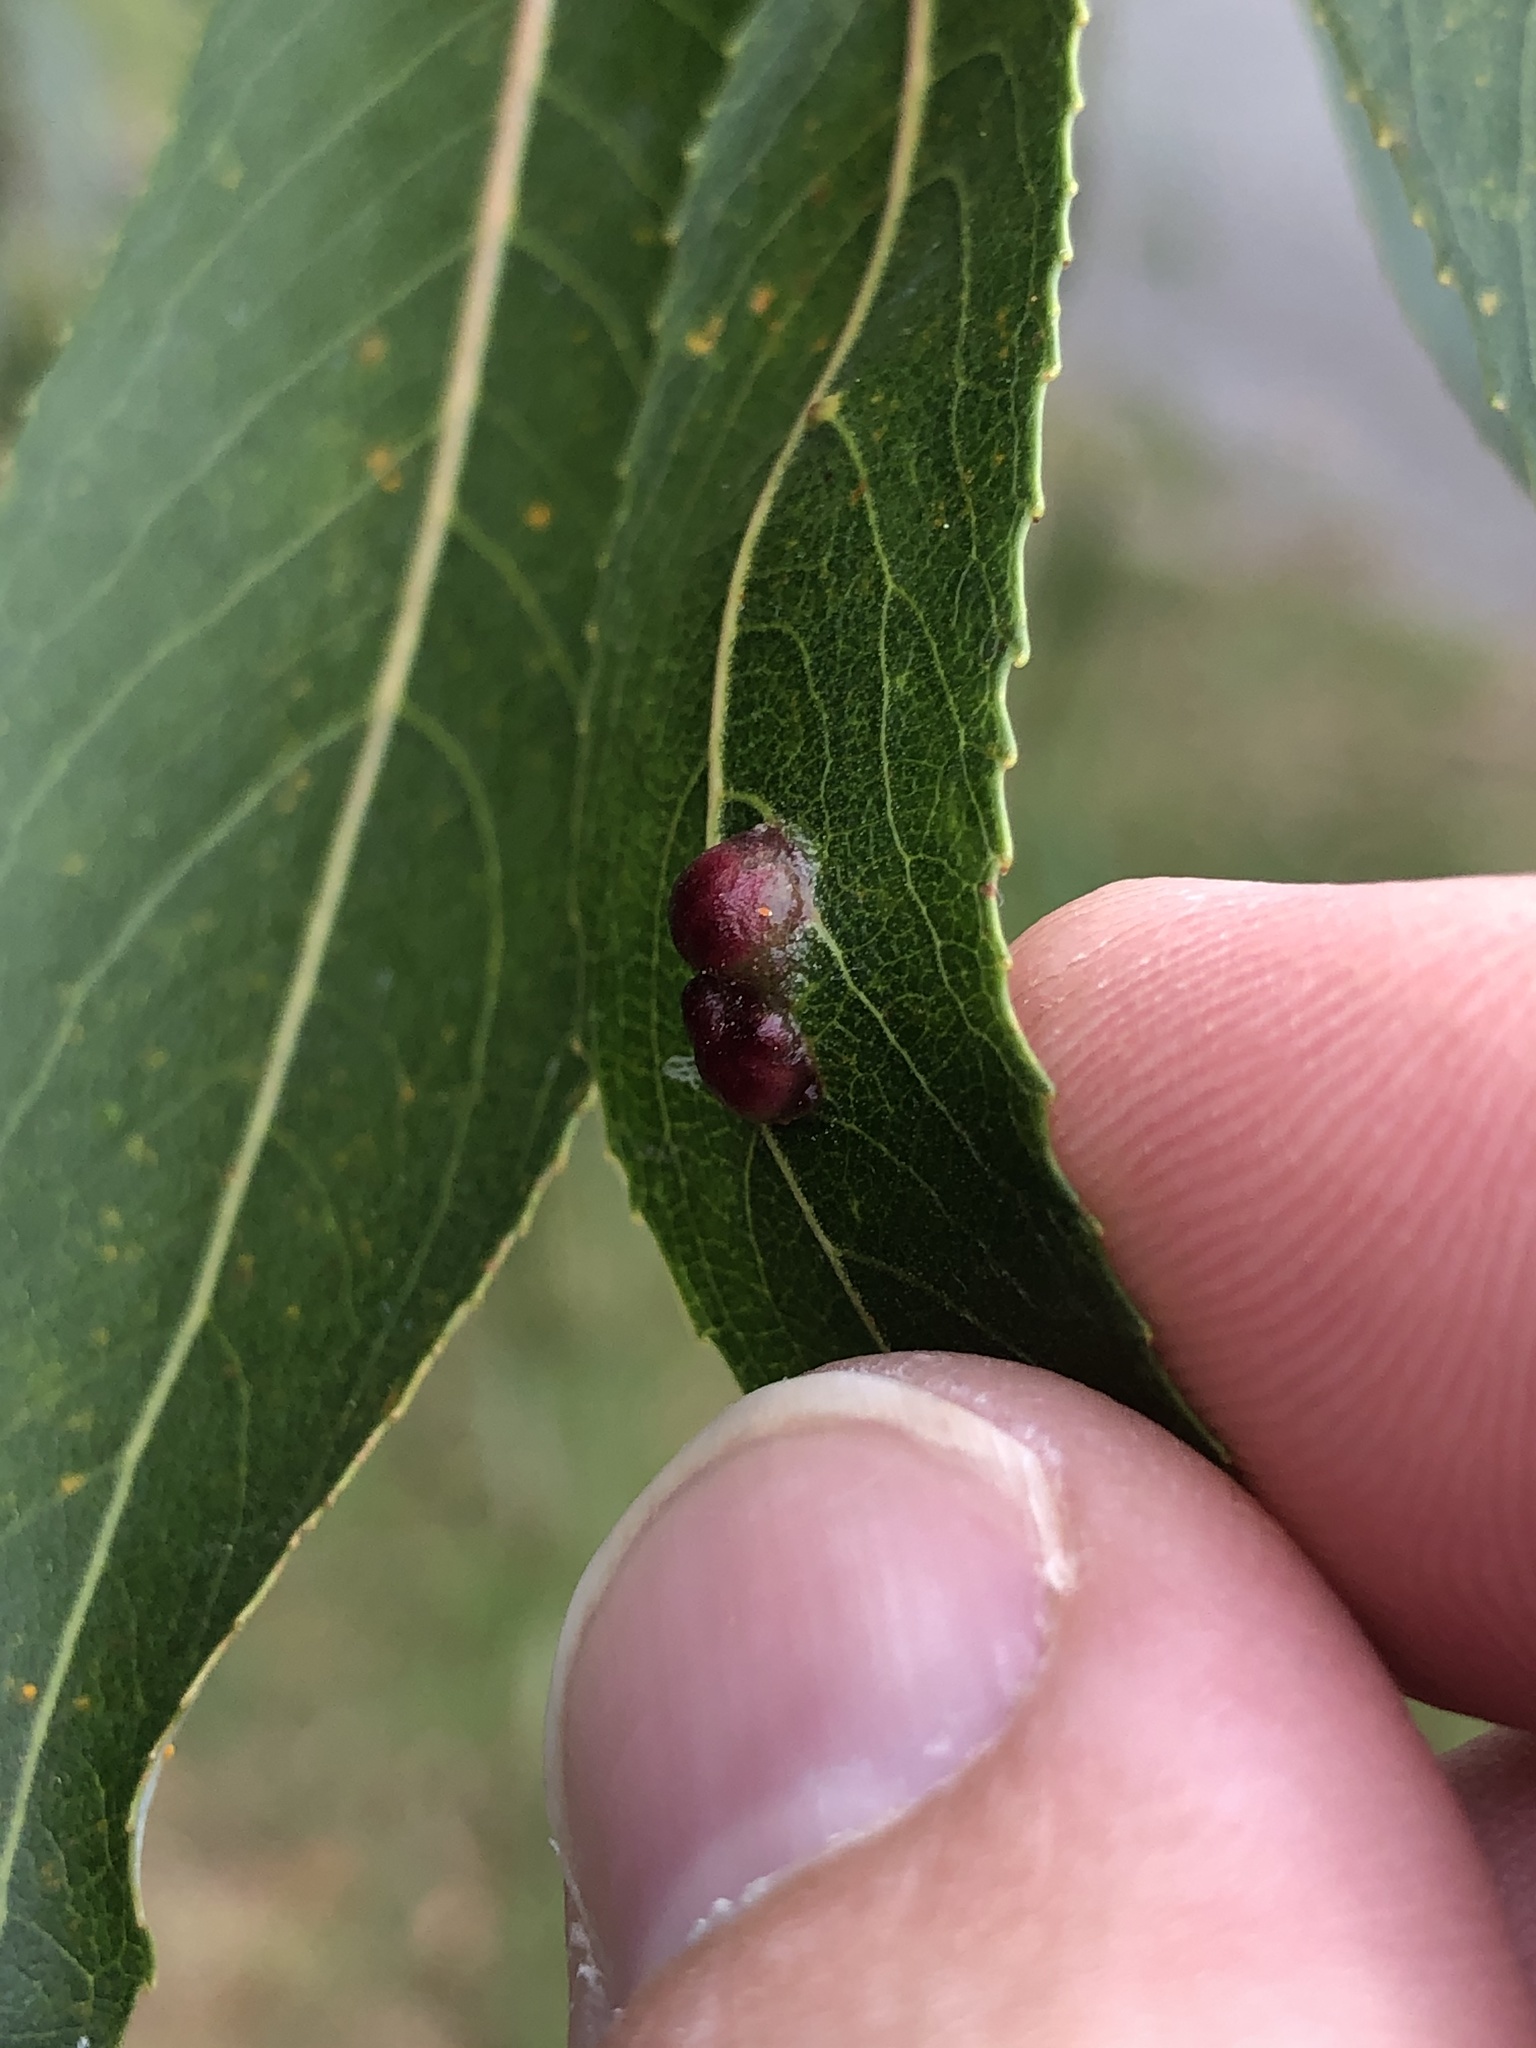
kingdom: Animalia
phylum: Arthropoda
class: Insecta
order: Hymenoptera
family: Tenthredinidae
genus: Pontania
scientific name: Pontania proxima
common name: Common sawfly
